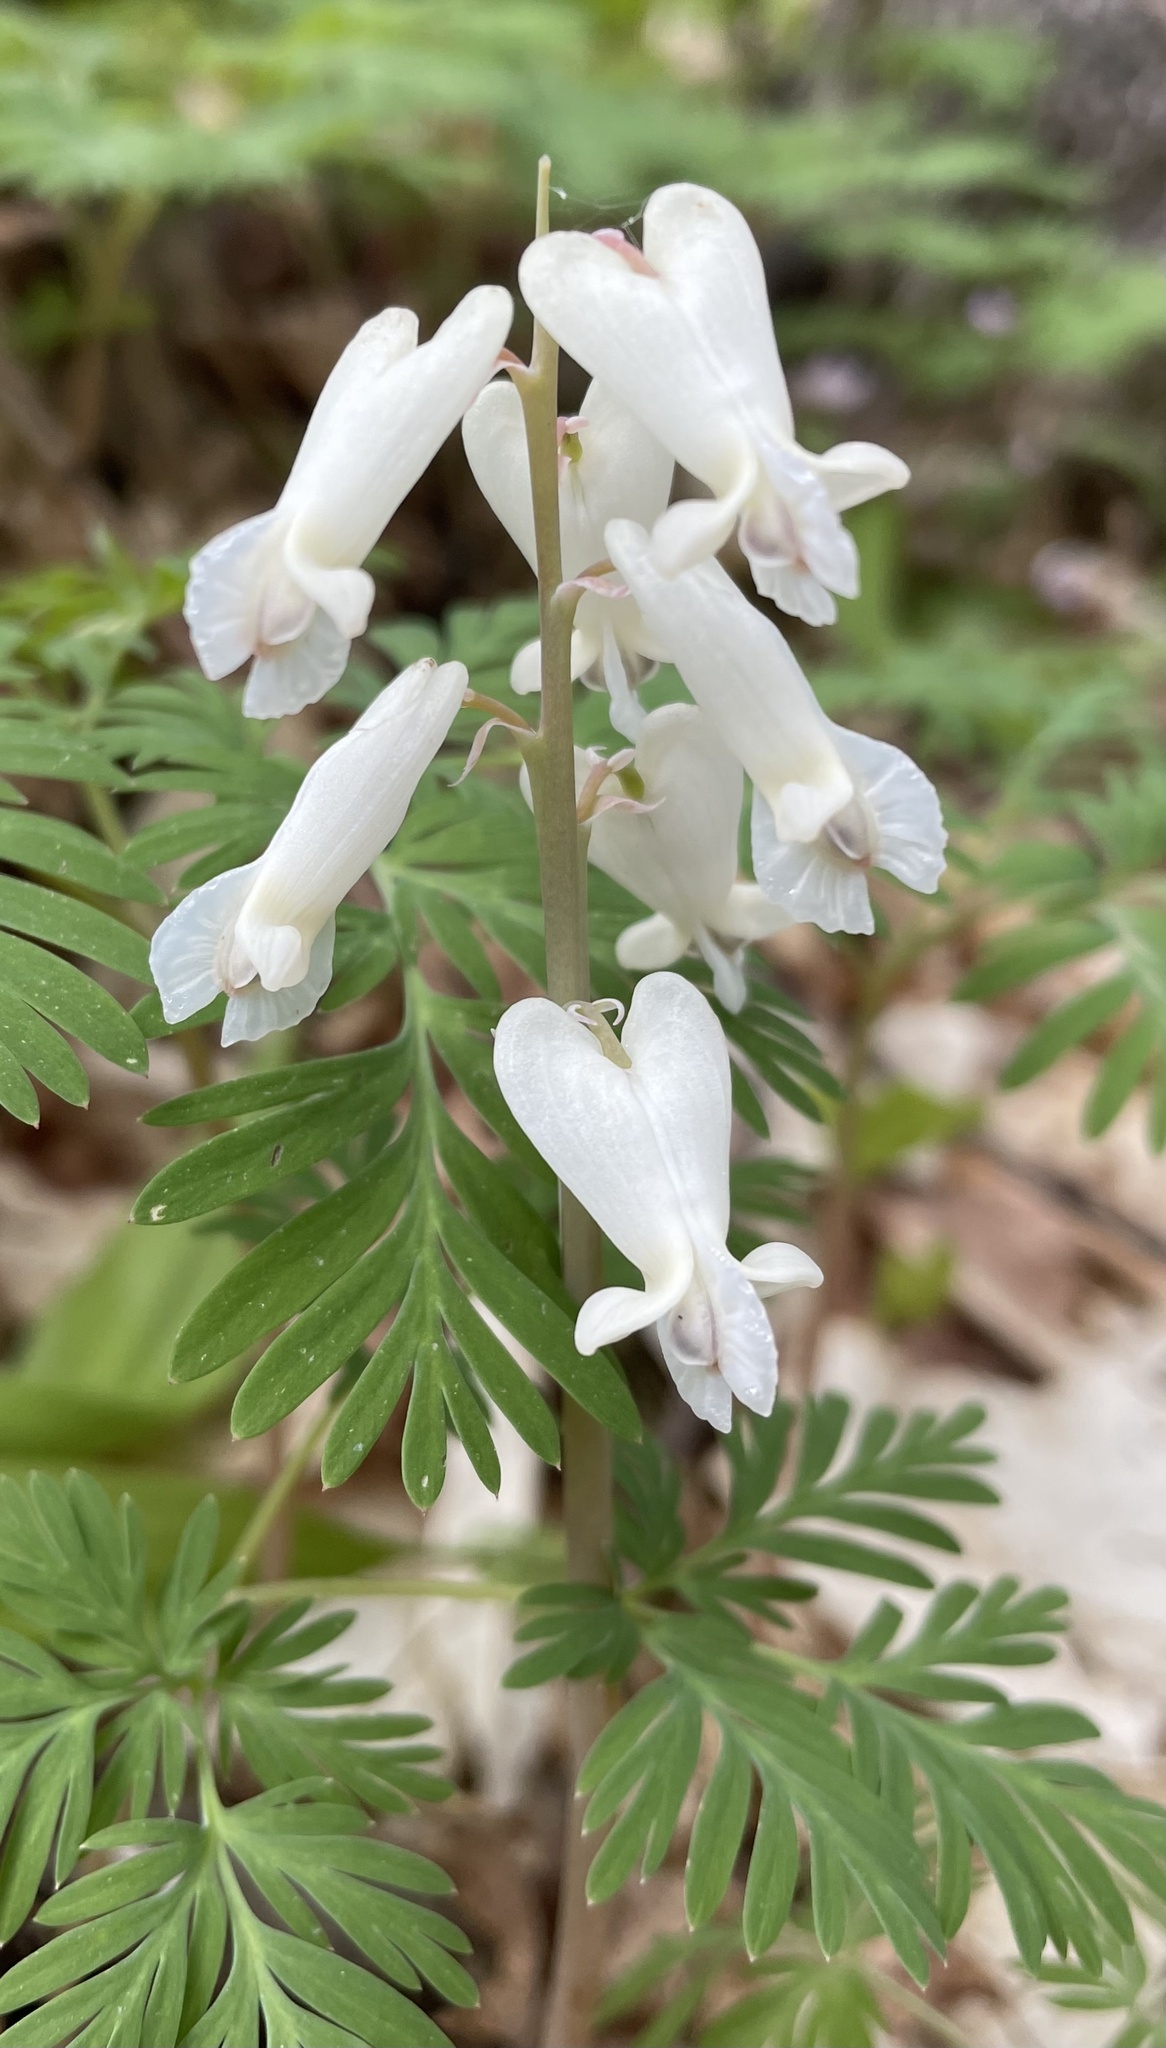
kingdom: Plantae
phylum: Tracheophyta
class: Magnoliopsida
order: Ranunculales
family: Papaveraceae
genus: Dicentra
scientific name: Dicentra canadensis
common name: Squirrel-corn
